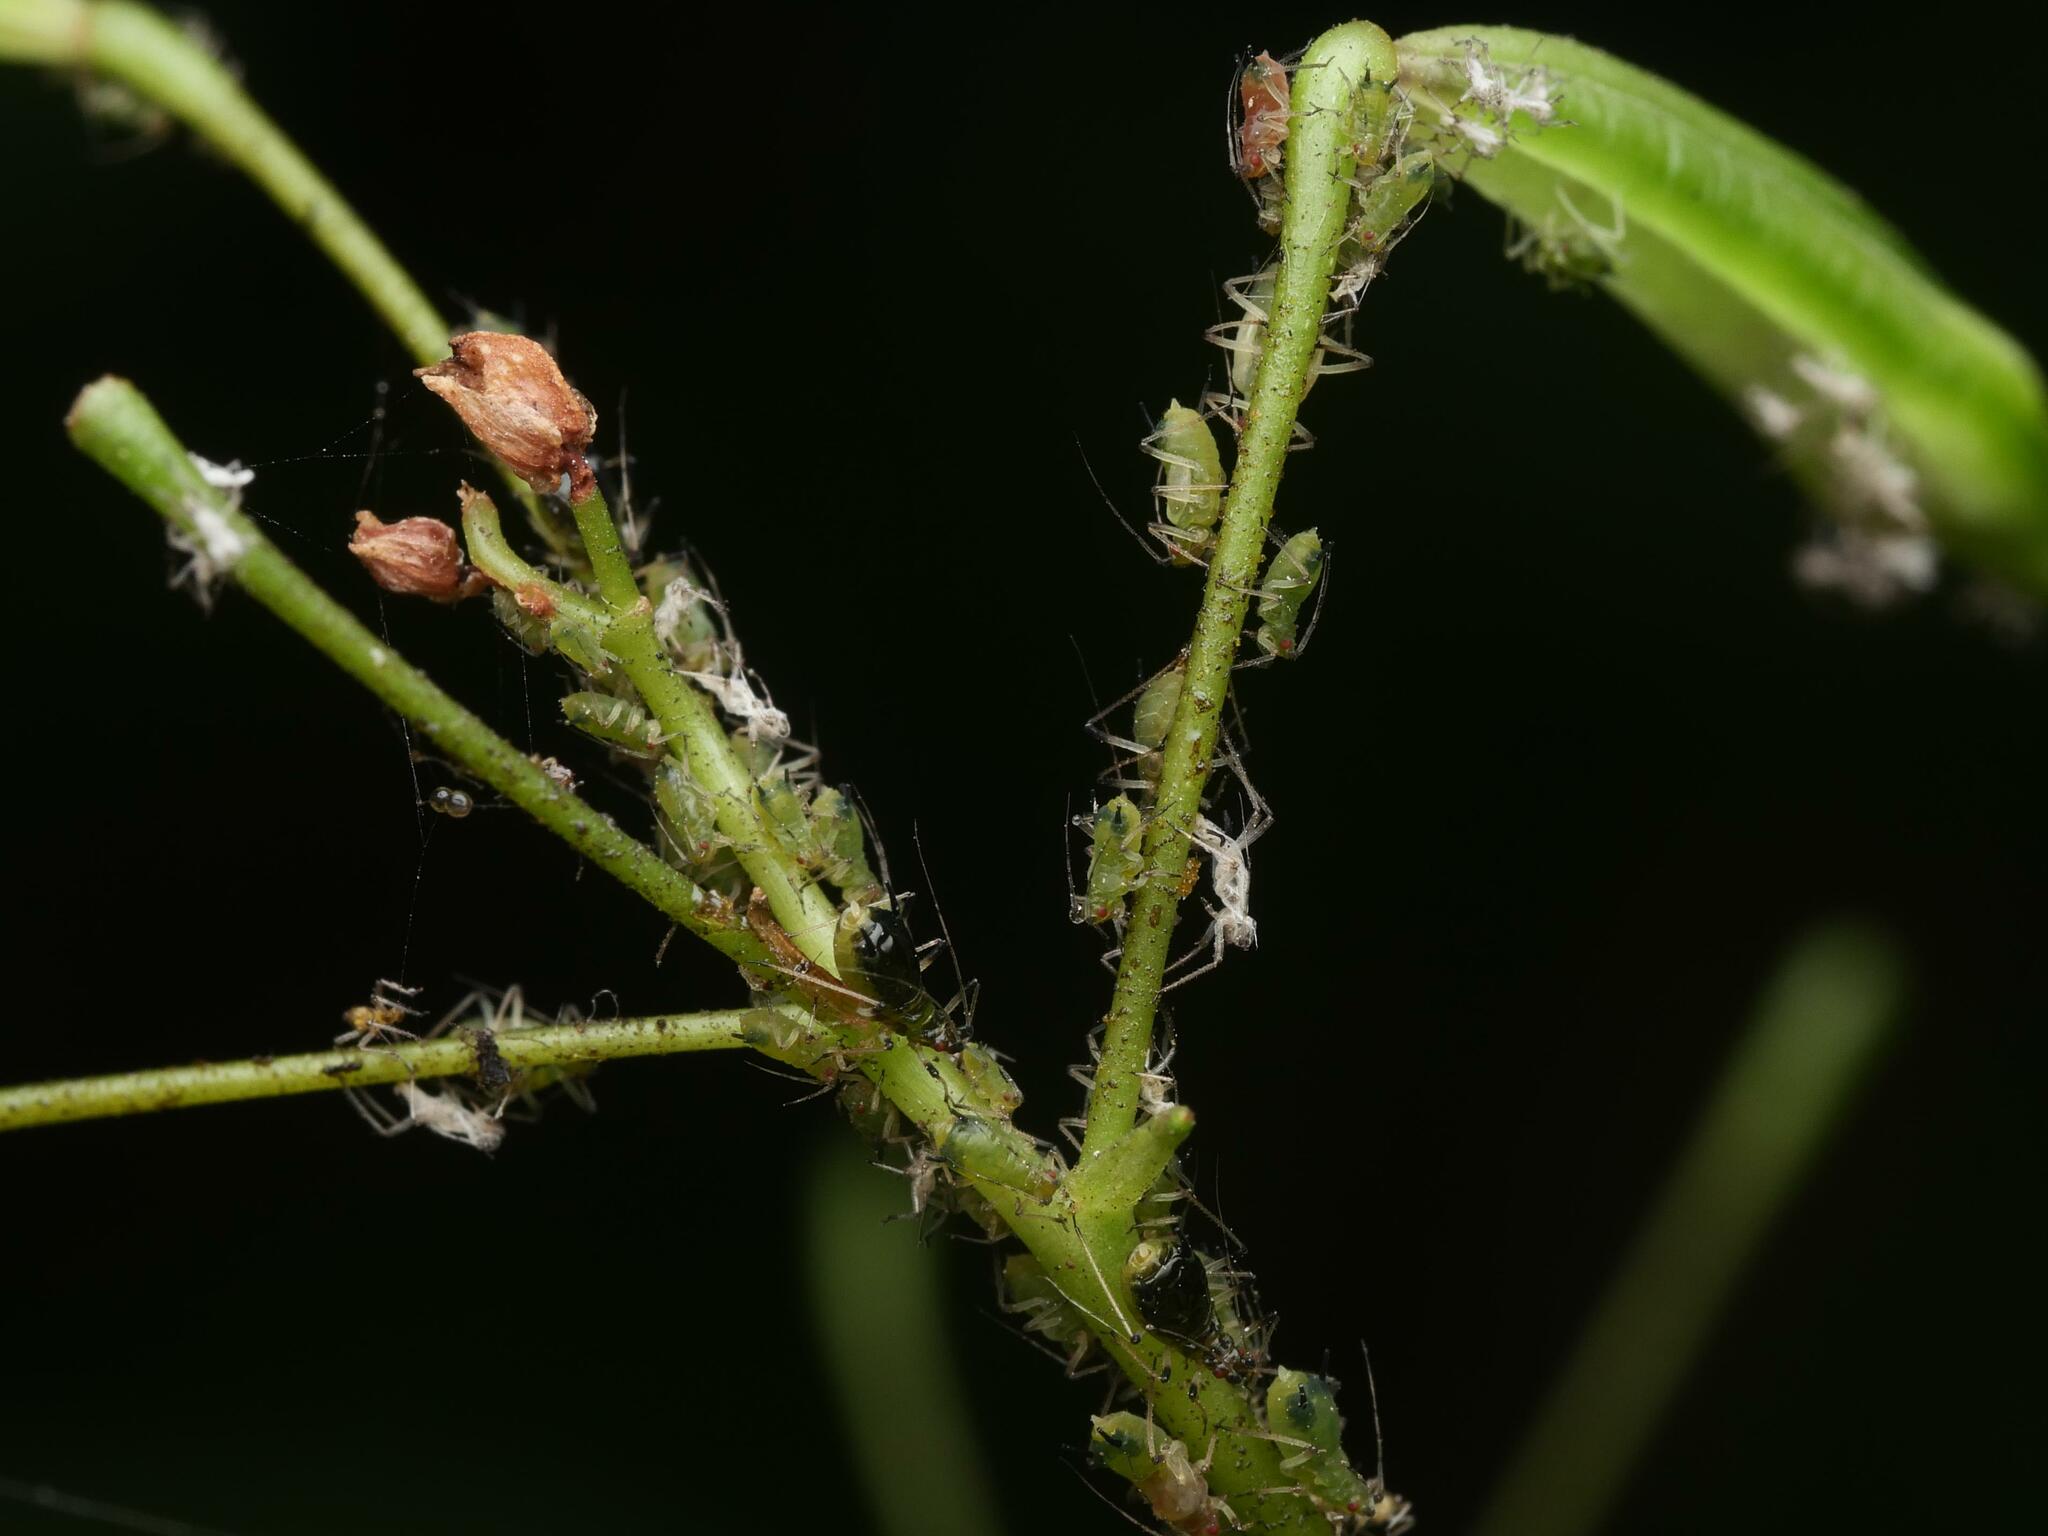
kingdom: Animalia
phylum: Arthropoda
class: Insecta
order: Hemiptera
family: Aphididae
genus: Impatientinum
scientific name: Impatientinum asiaticum
